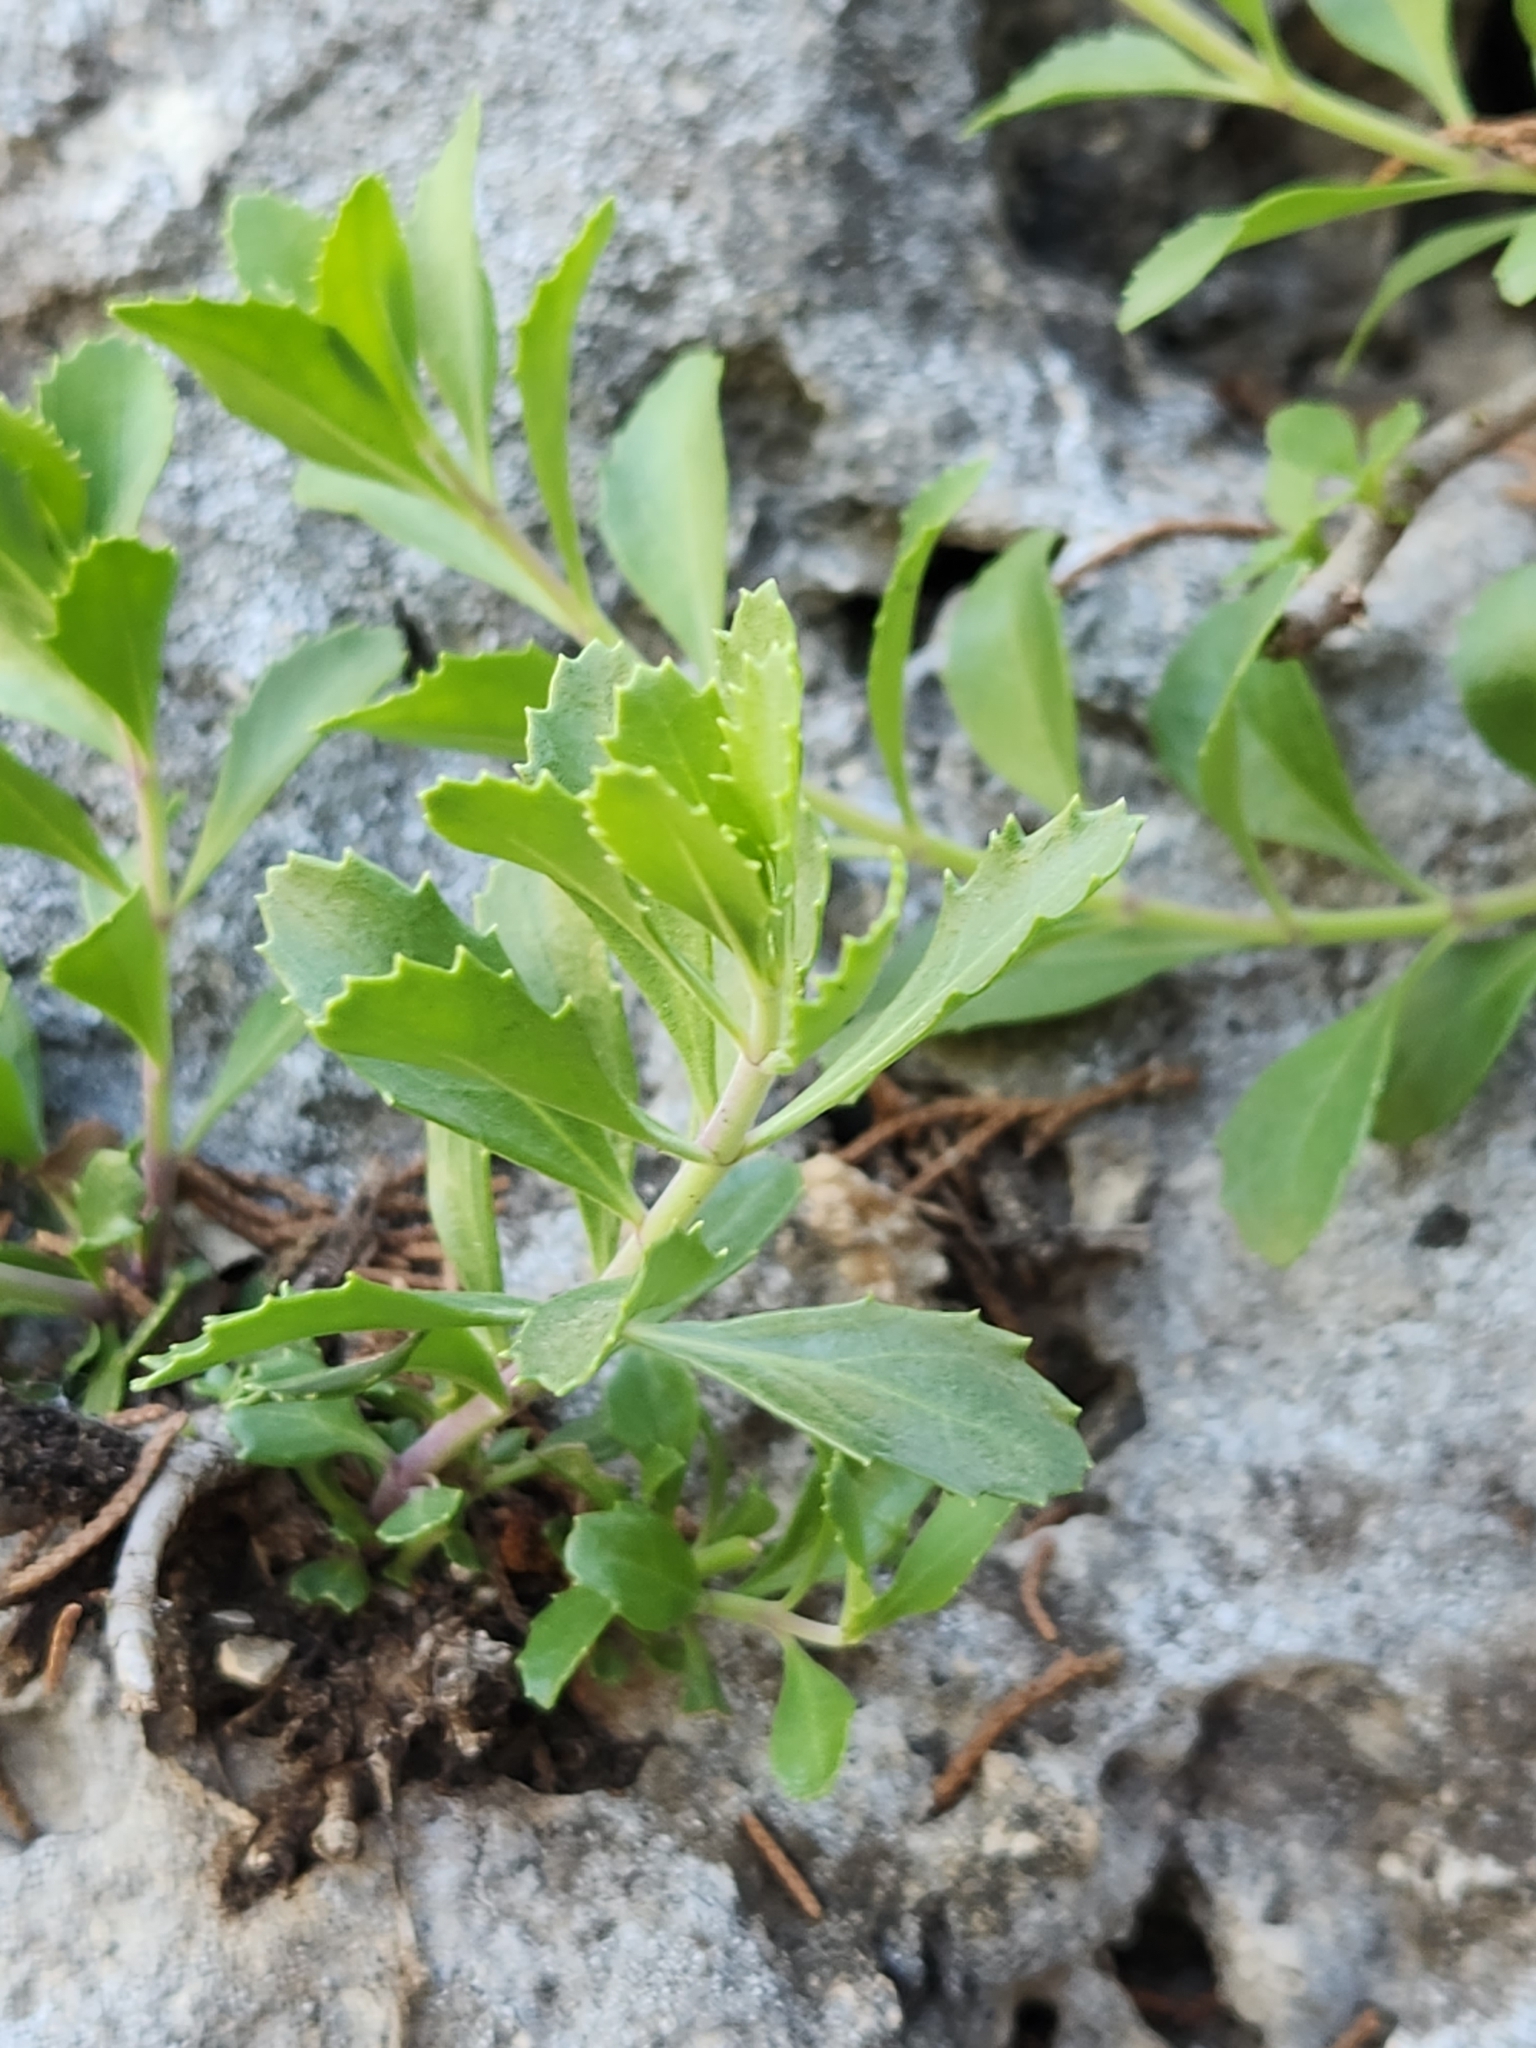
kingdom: Plantae
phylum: Tracheophyta
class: Magnoliopsida
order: Lamiales
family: Plantaginaceae
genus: Penstemon
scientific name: Penstemon baccharifolius
